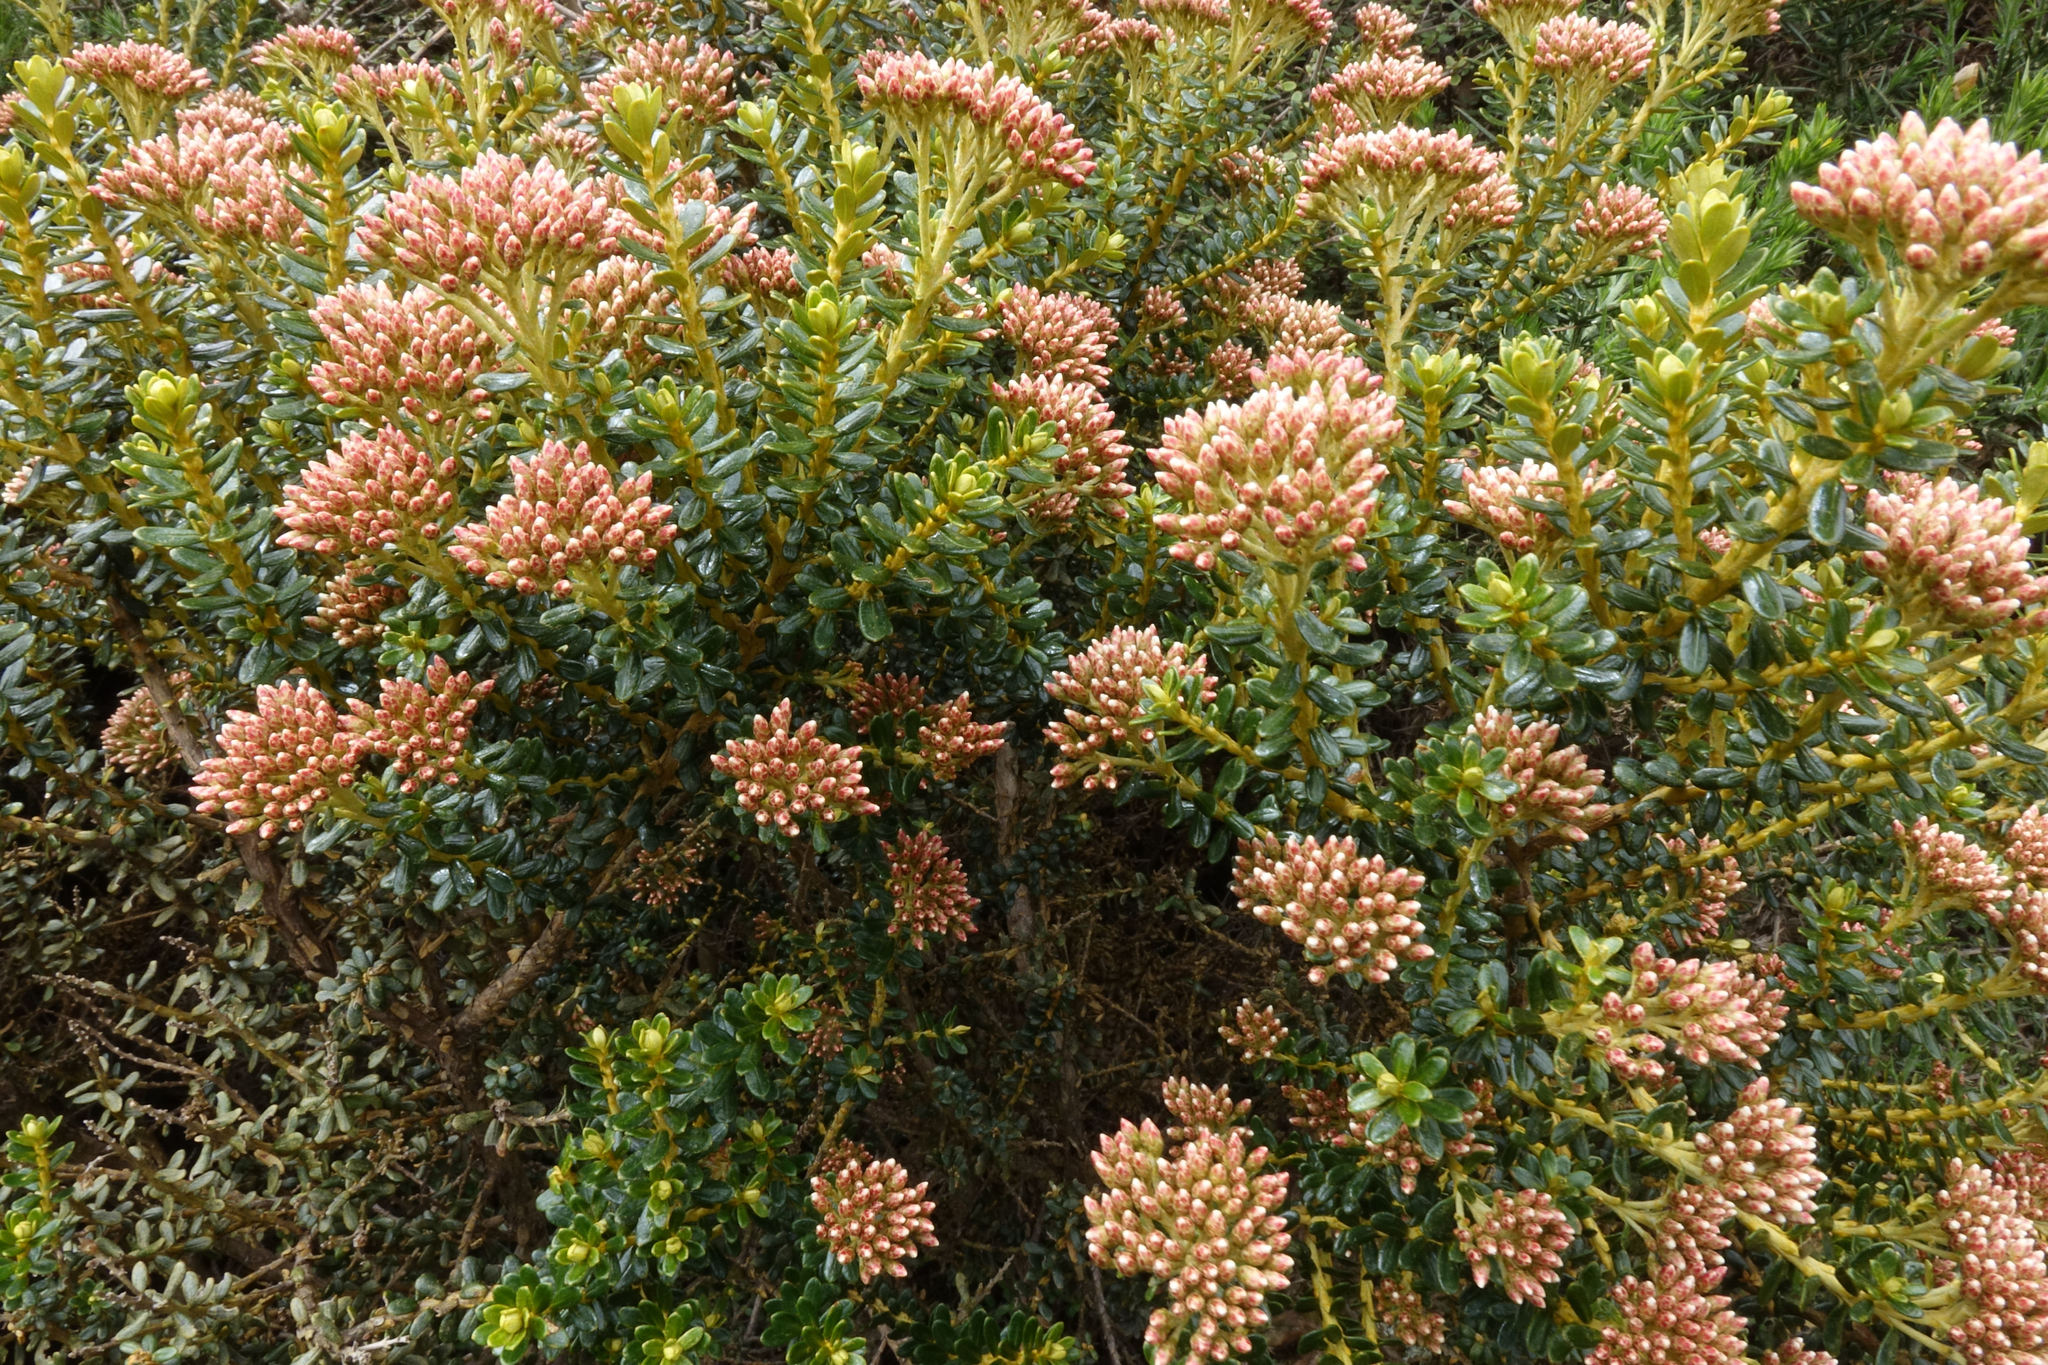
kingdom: Plantae
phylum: Tracheophyta
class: Magnoliopsida
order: Asterales
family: Asteraceae
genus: Ozothamnus
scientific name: Ozothamnus leptophyllus
